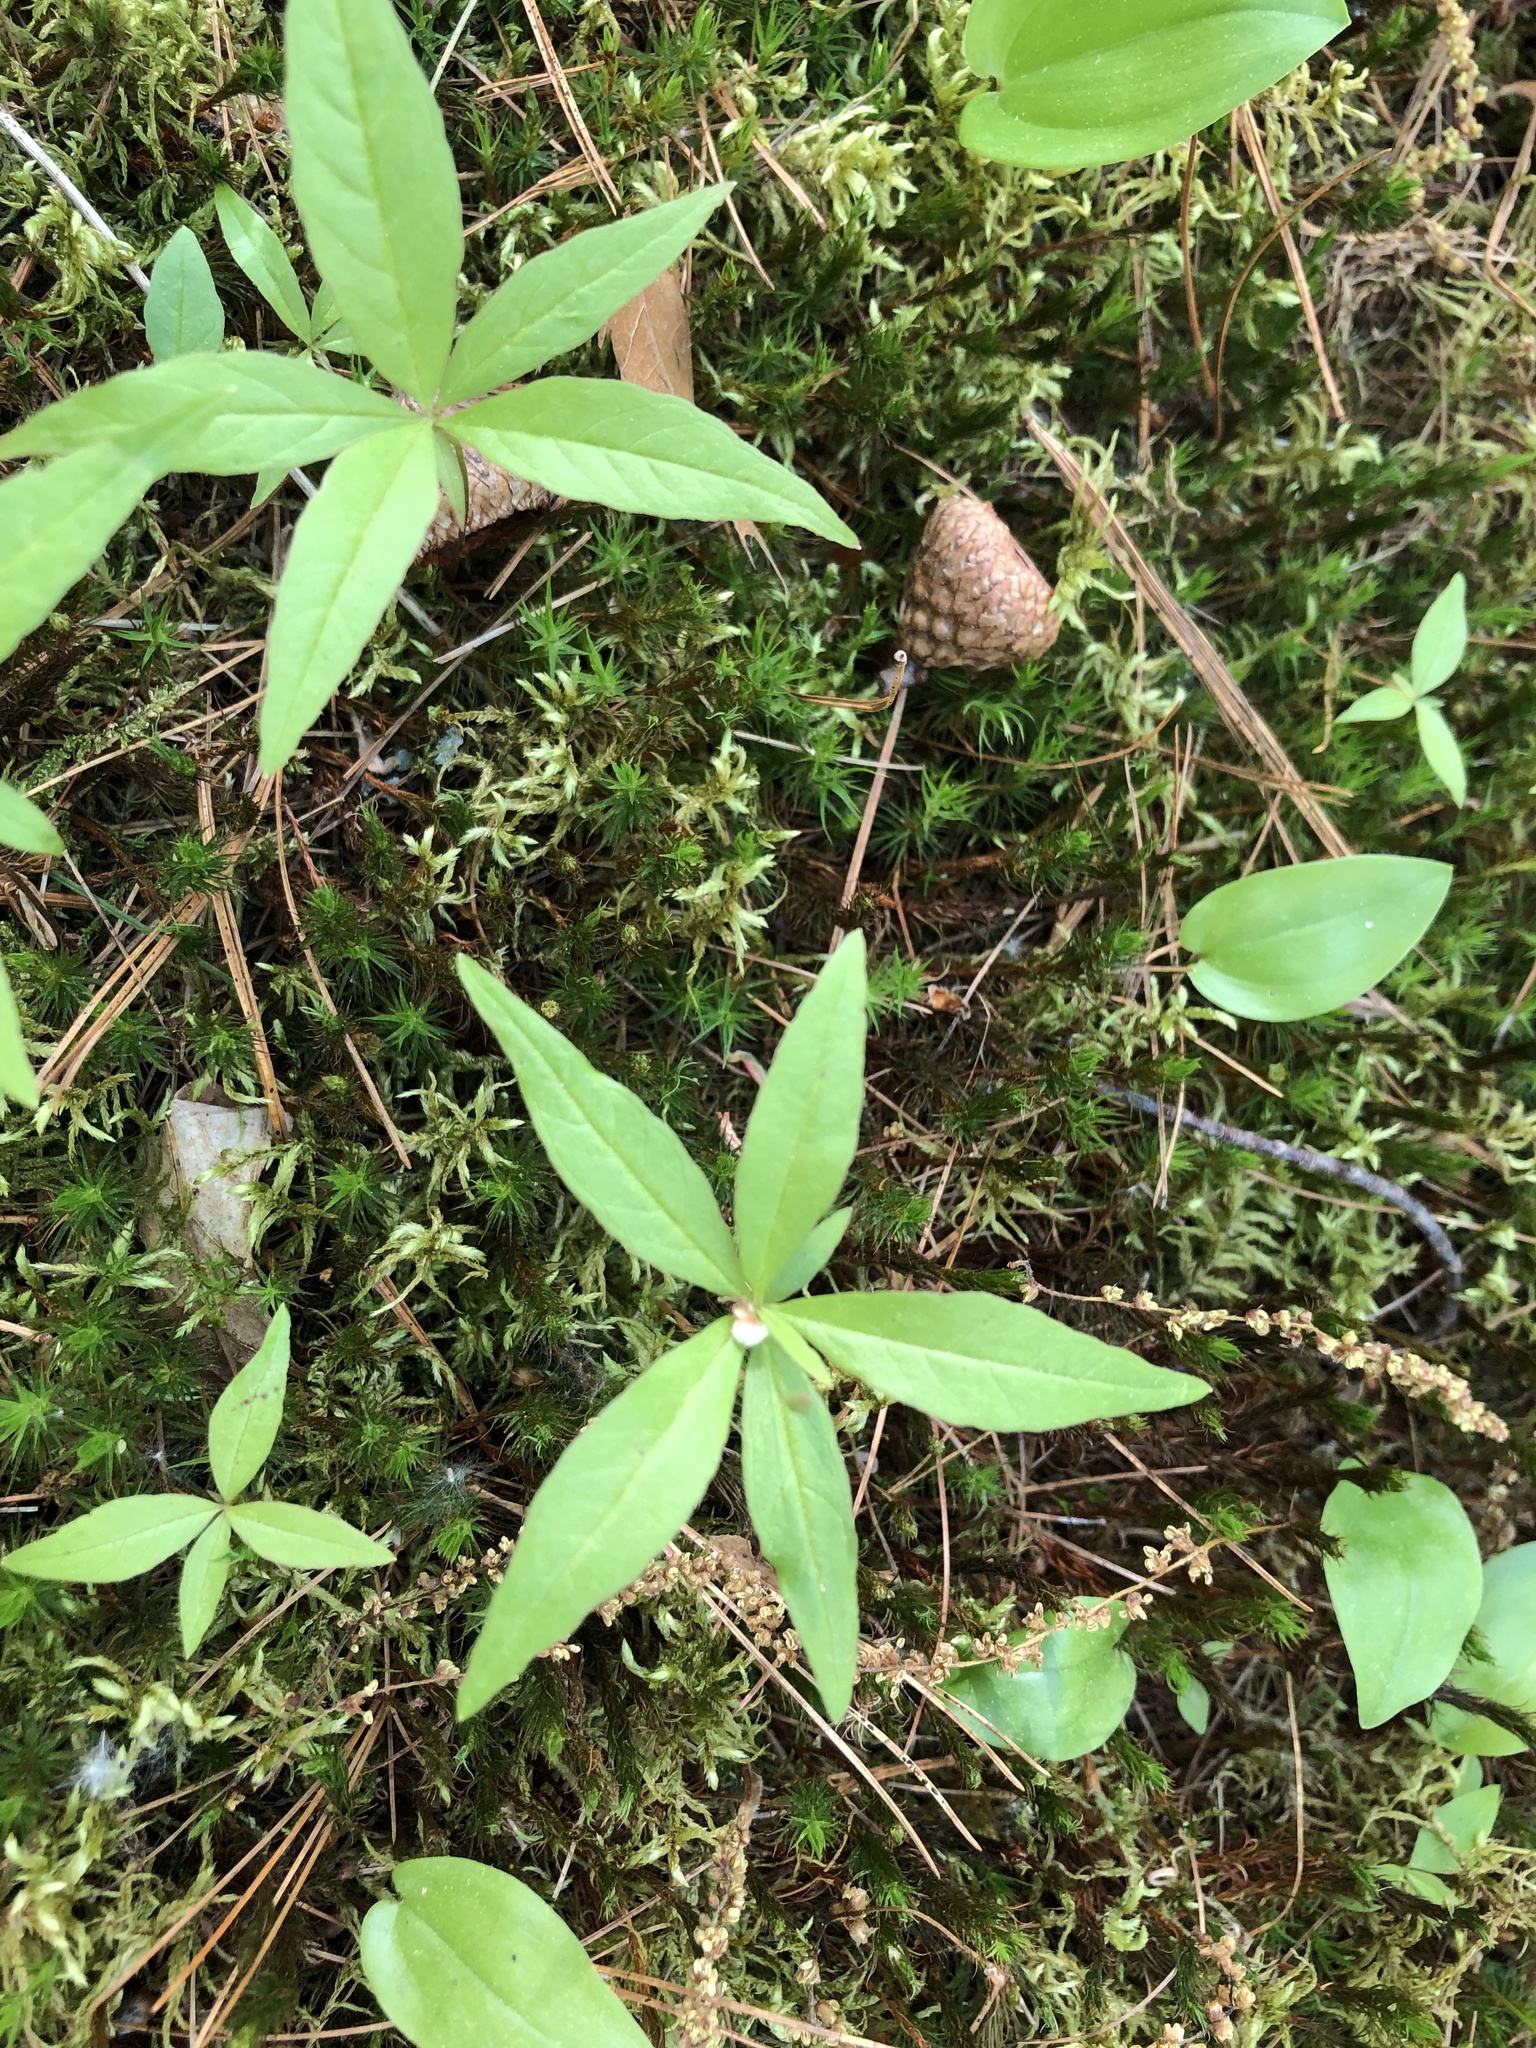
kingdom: Plantae
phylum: Tracheophyta
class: Magnoliopsida
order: Ericales
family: Primulaceae
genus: Lysimachia
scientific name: Lysimachia borealis
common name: American starflower
